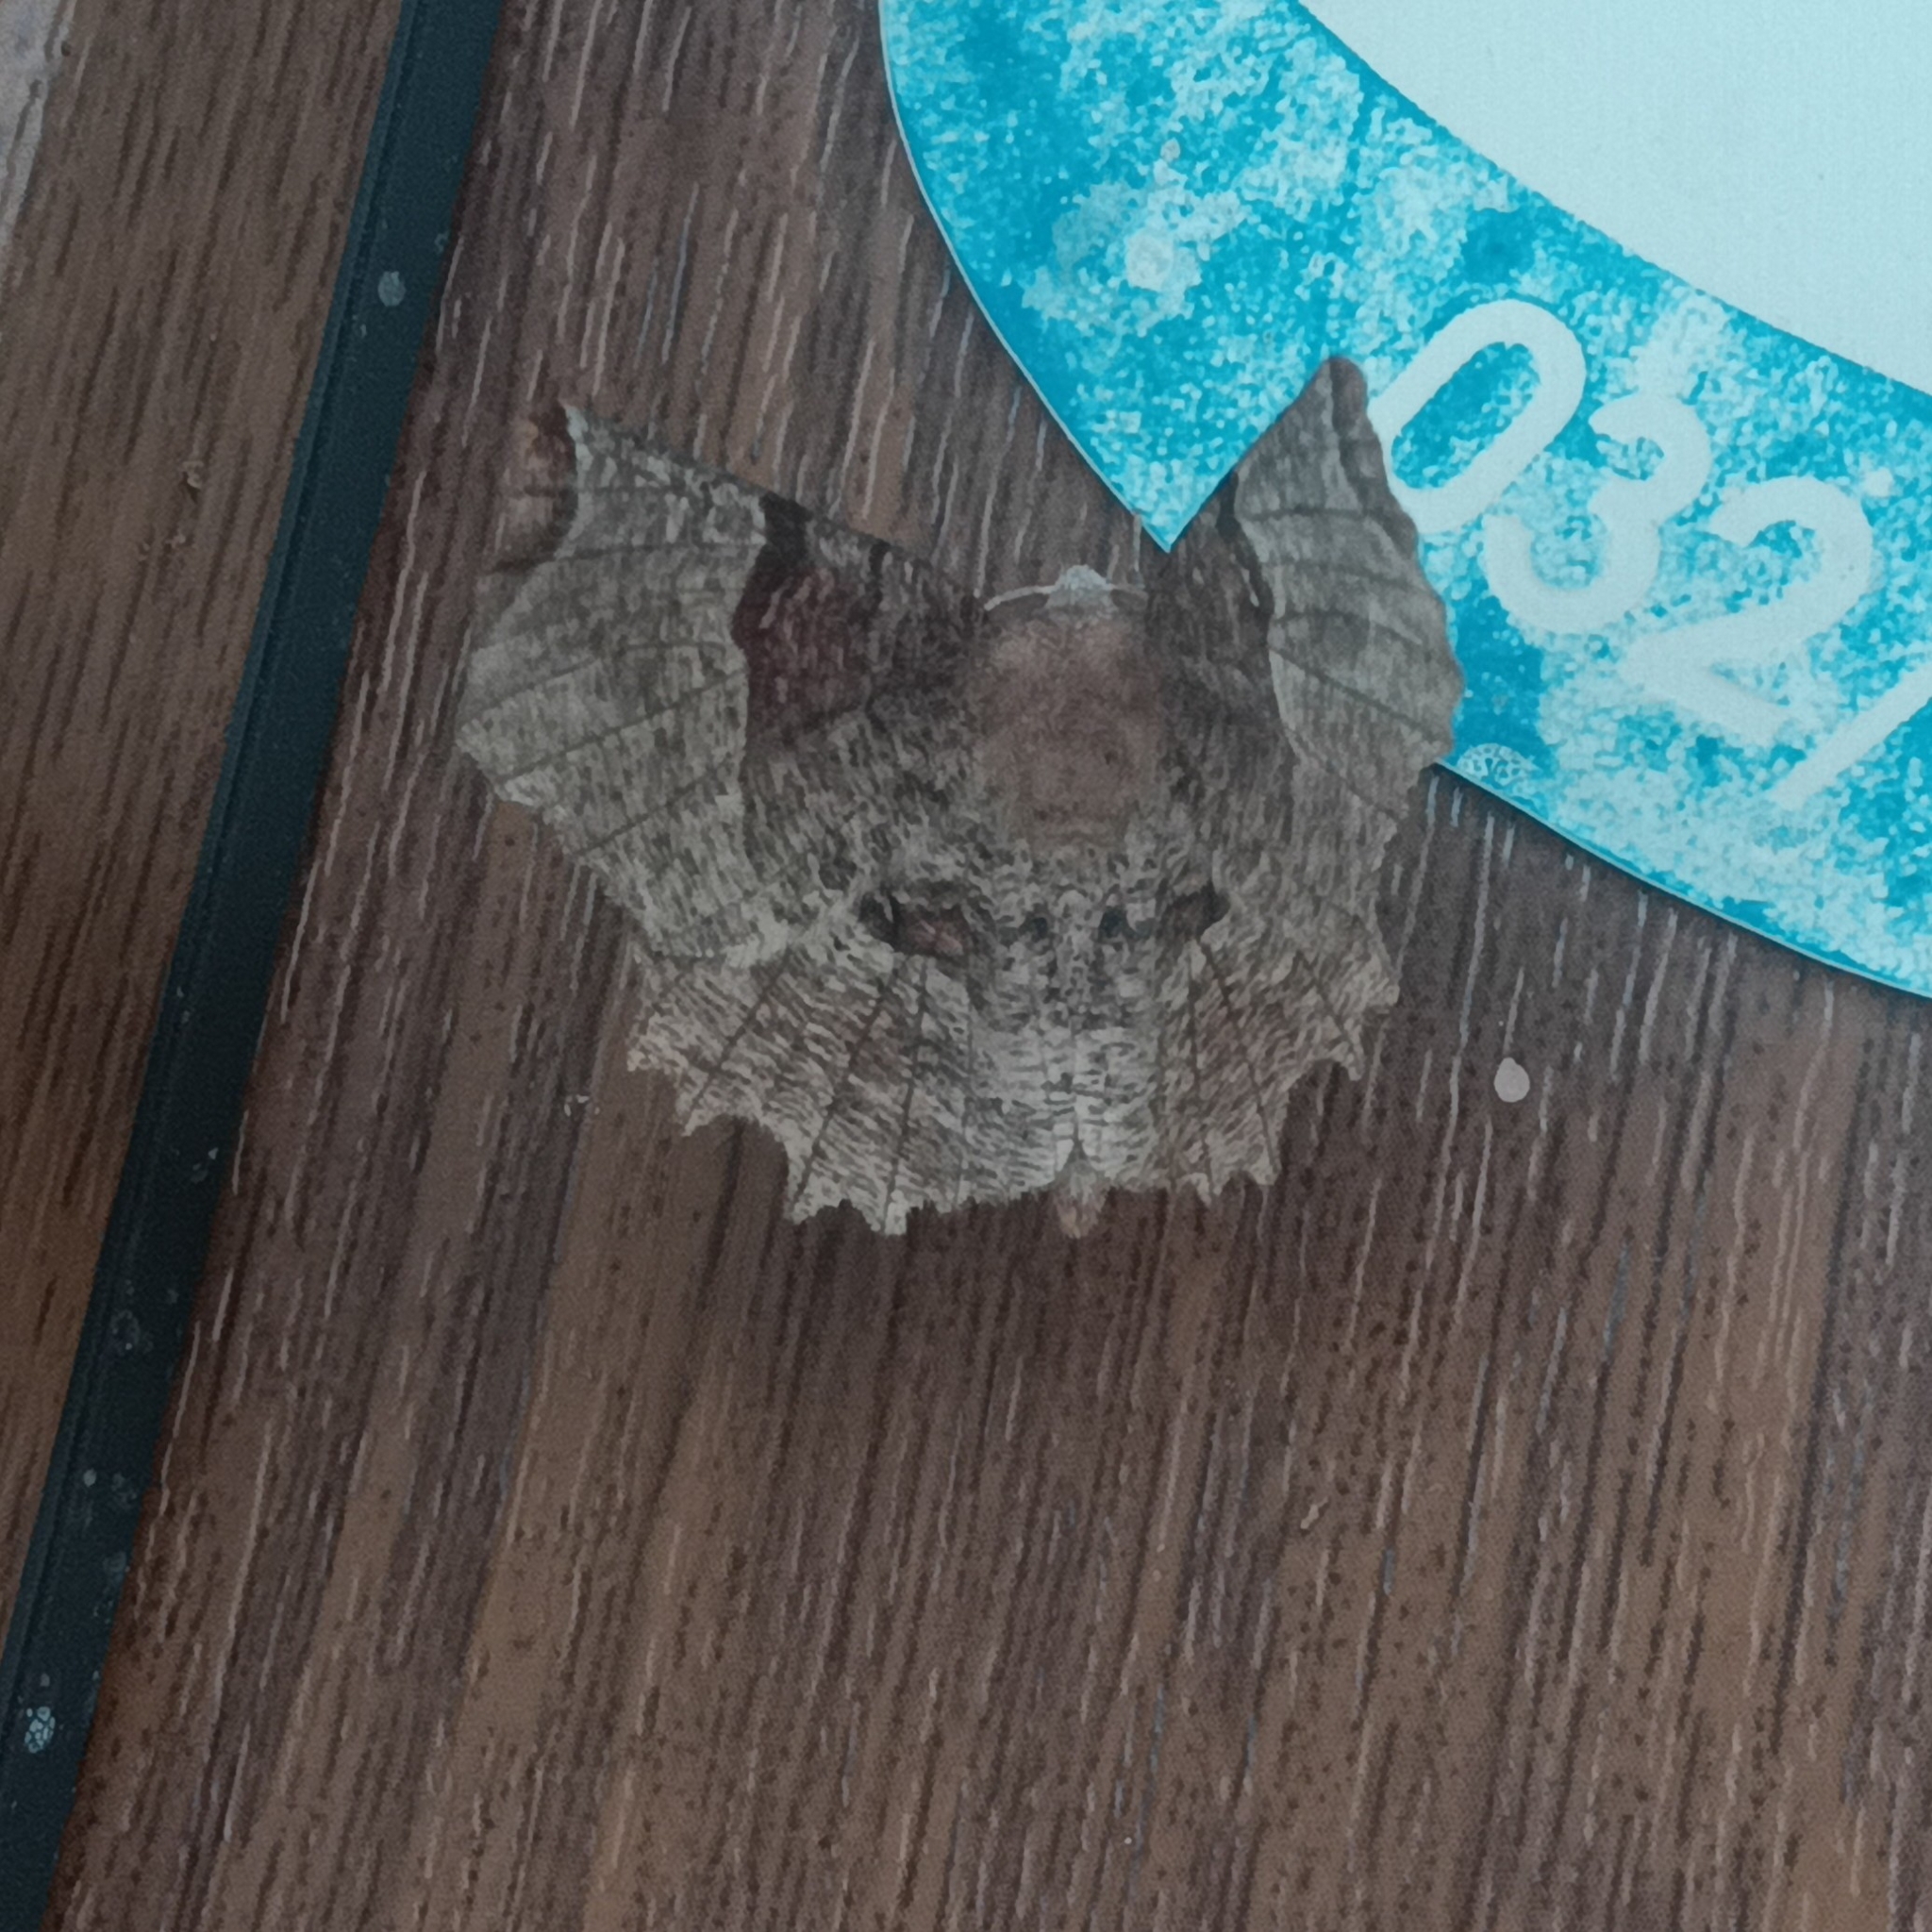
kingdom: Animalia
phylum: Arthropoda
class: Insecta
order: Lepidoptera
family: Geometridae
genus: Selenia
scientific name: Selenia lunularia
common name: Lunar thorn
